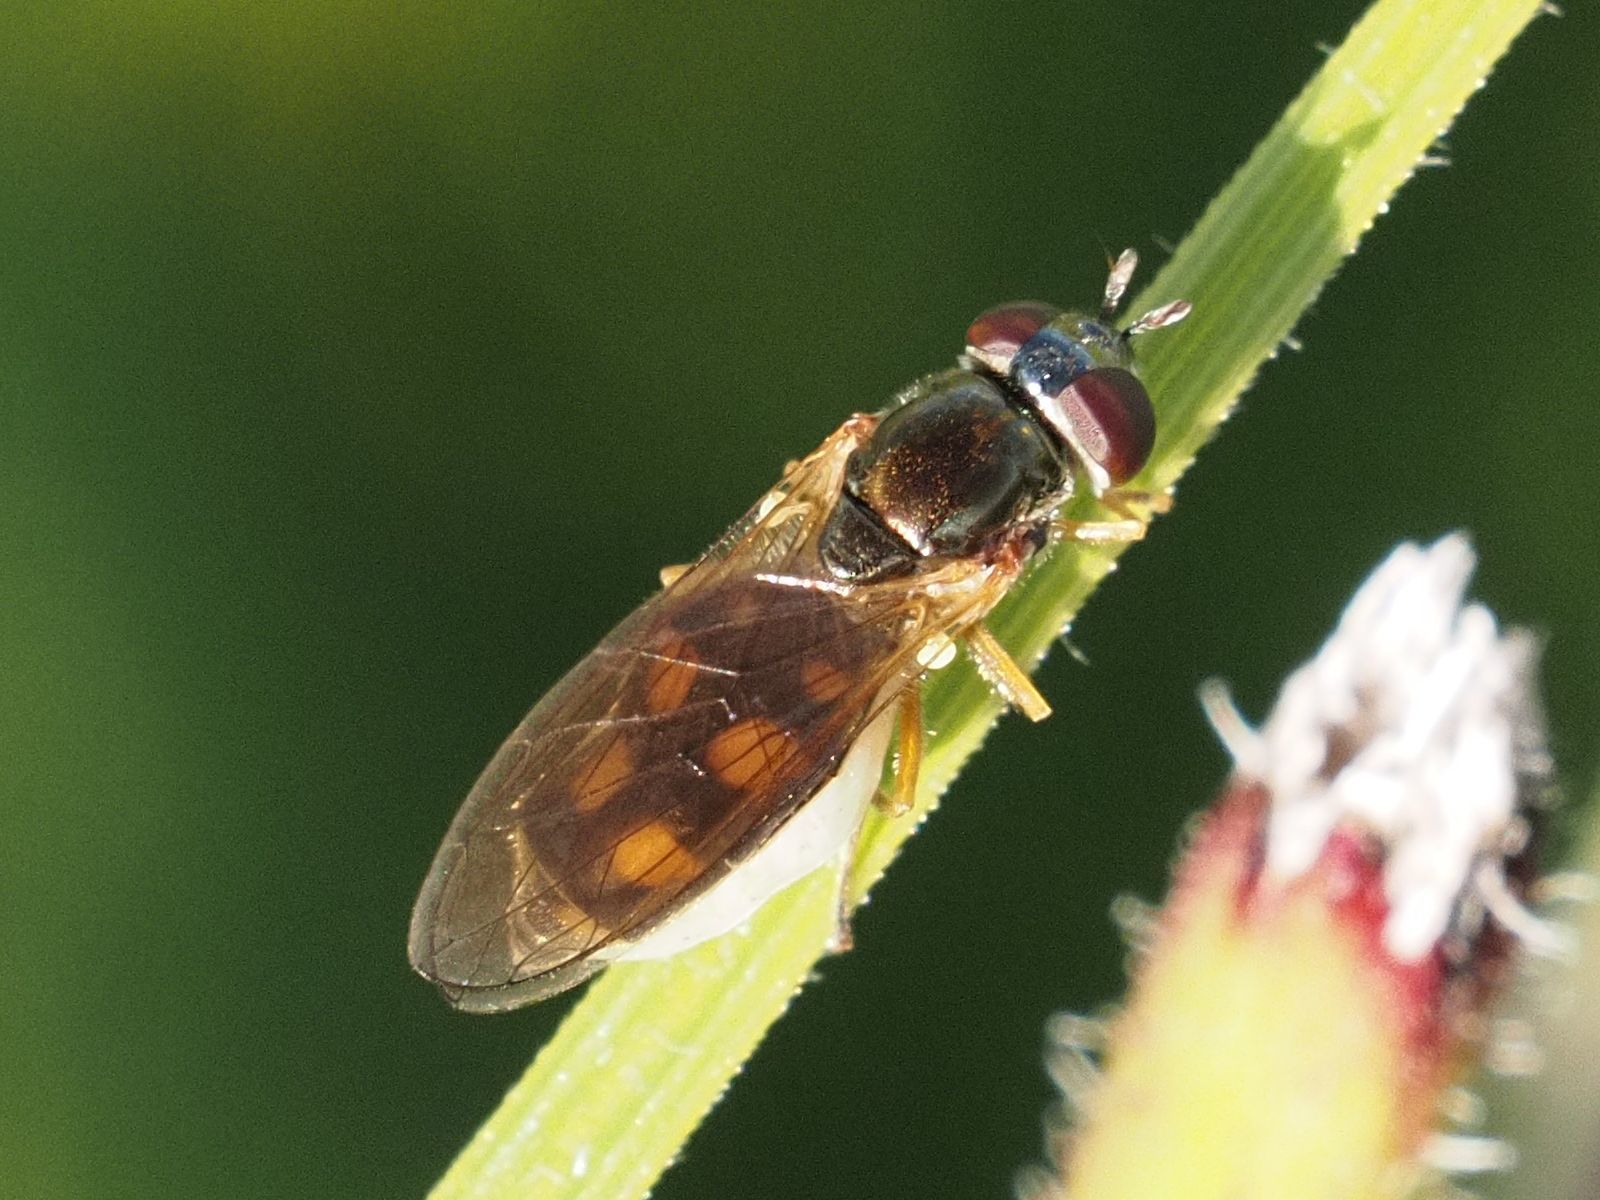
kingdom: Animalia
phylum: Arthropoda
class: Insecta
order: Diptera
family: Syrphidae
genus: Melanostoma
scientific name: Melanostoma scalare
